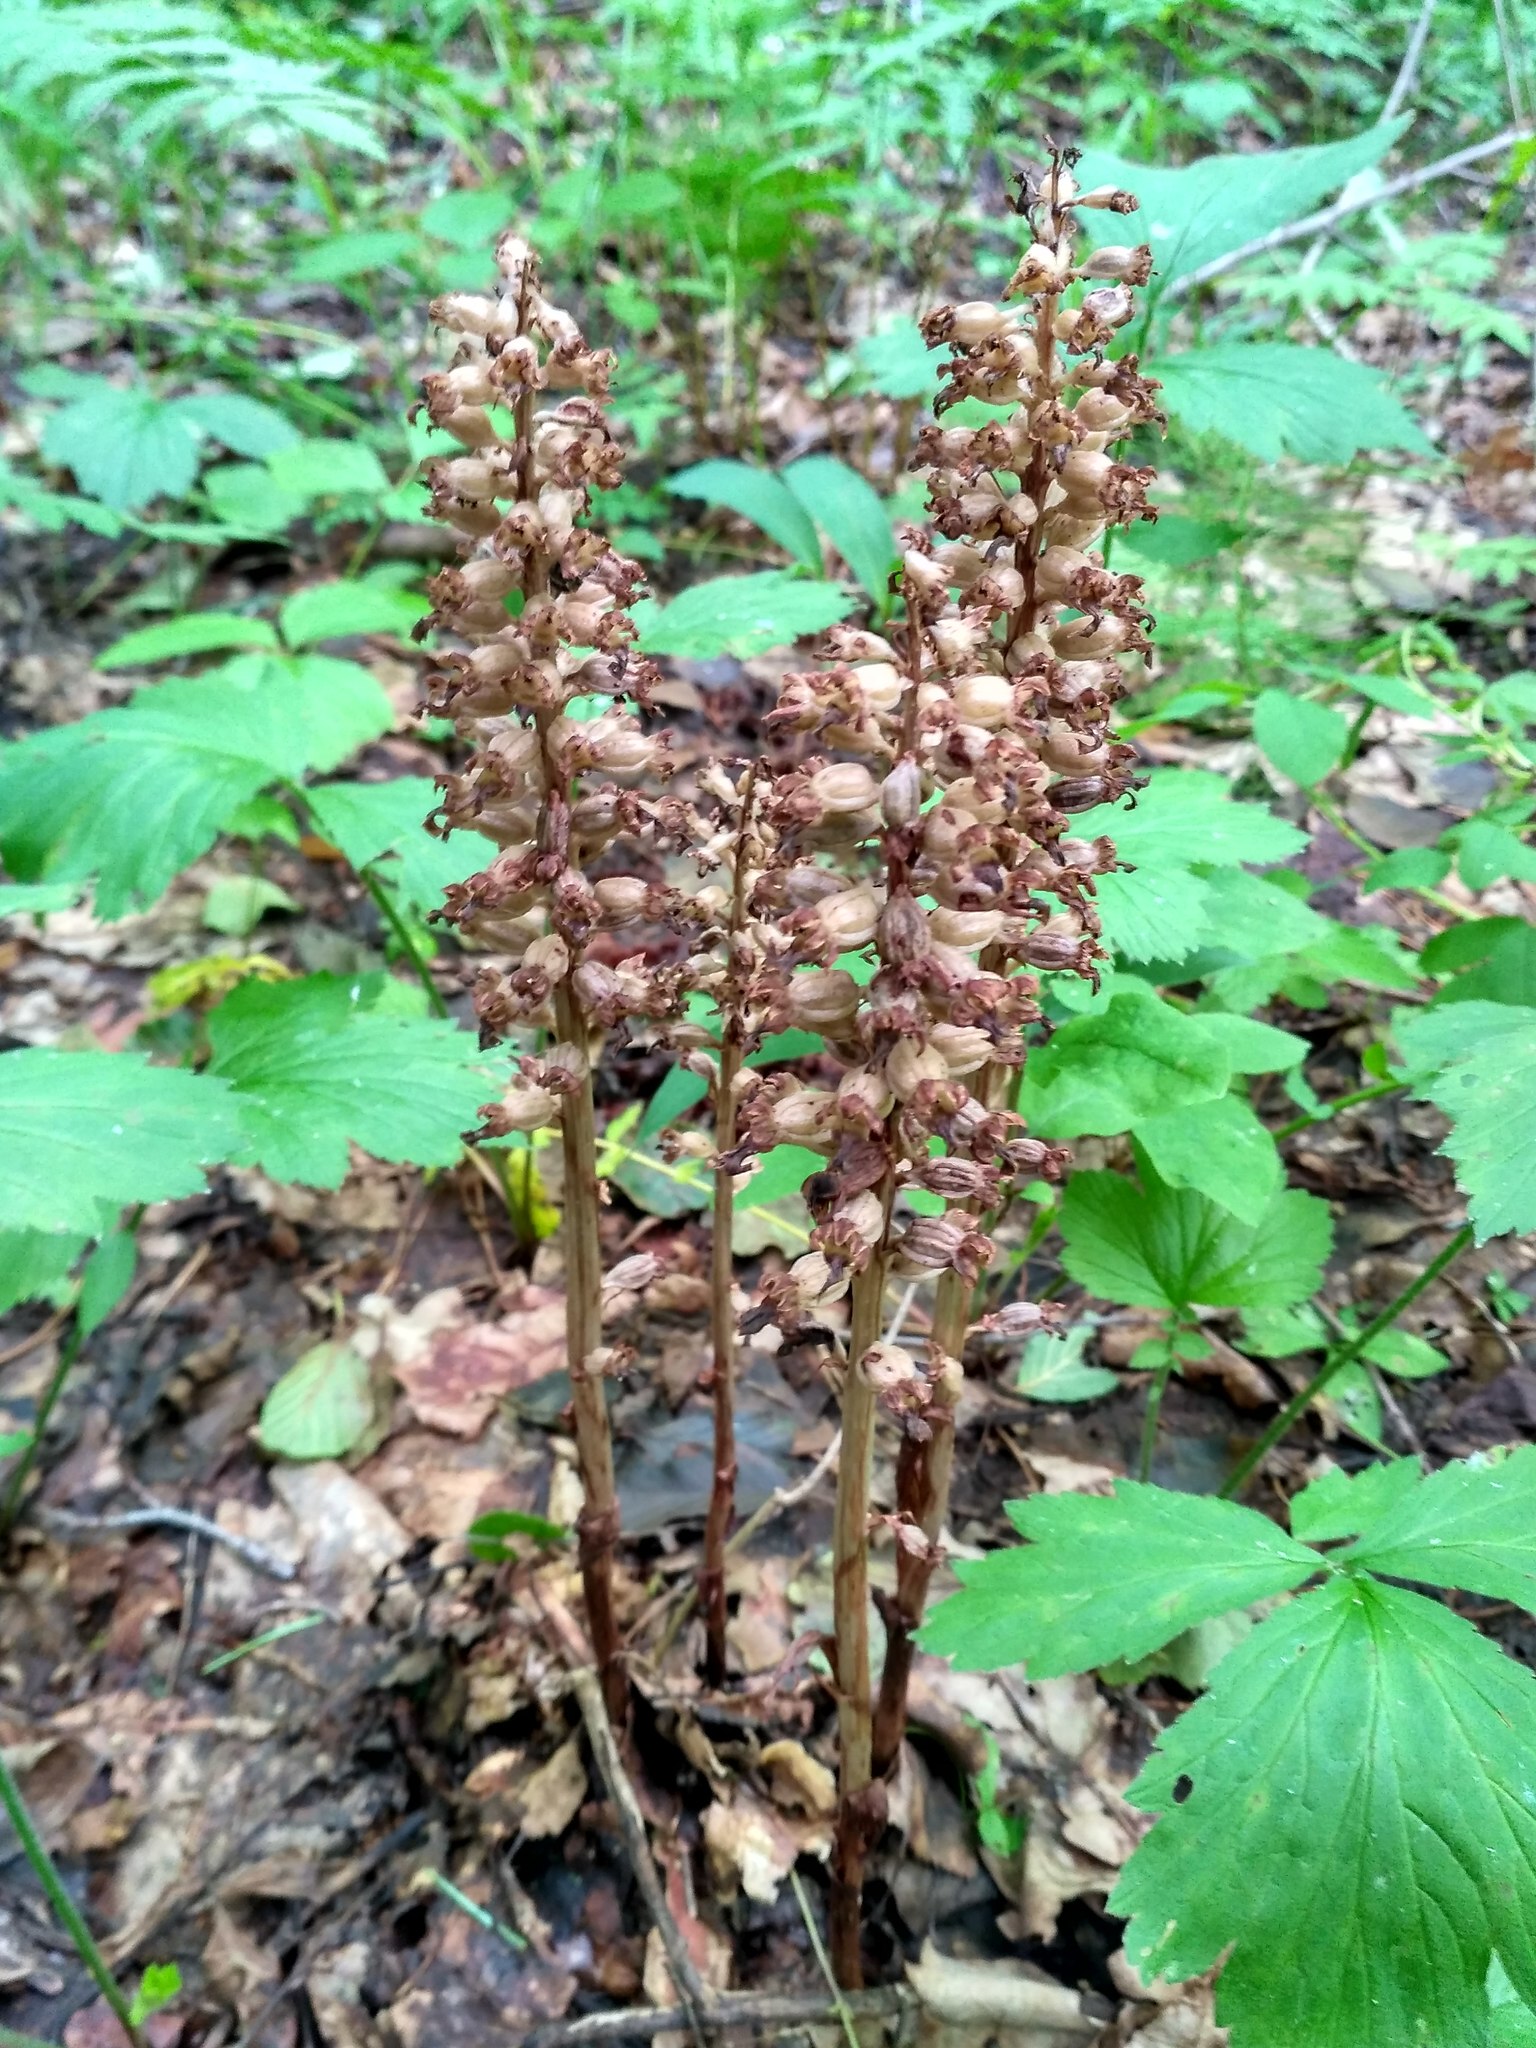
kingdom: Plantae
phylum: Tracheophyta
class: Liliopsida
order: Asparagales
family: Orchidaceae
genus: Neottia
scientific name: Neottia nidus-avis
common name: Bird's-nest orchid
